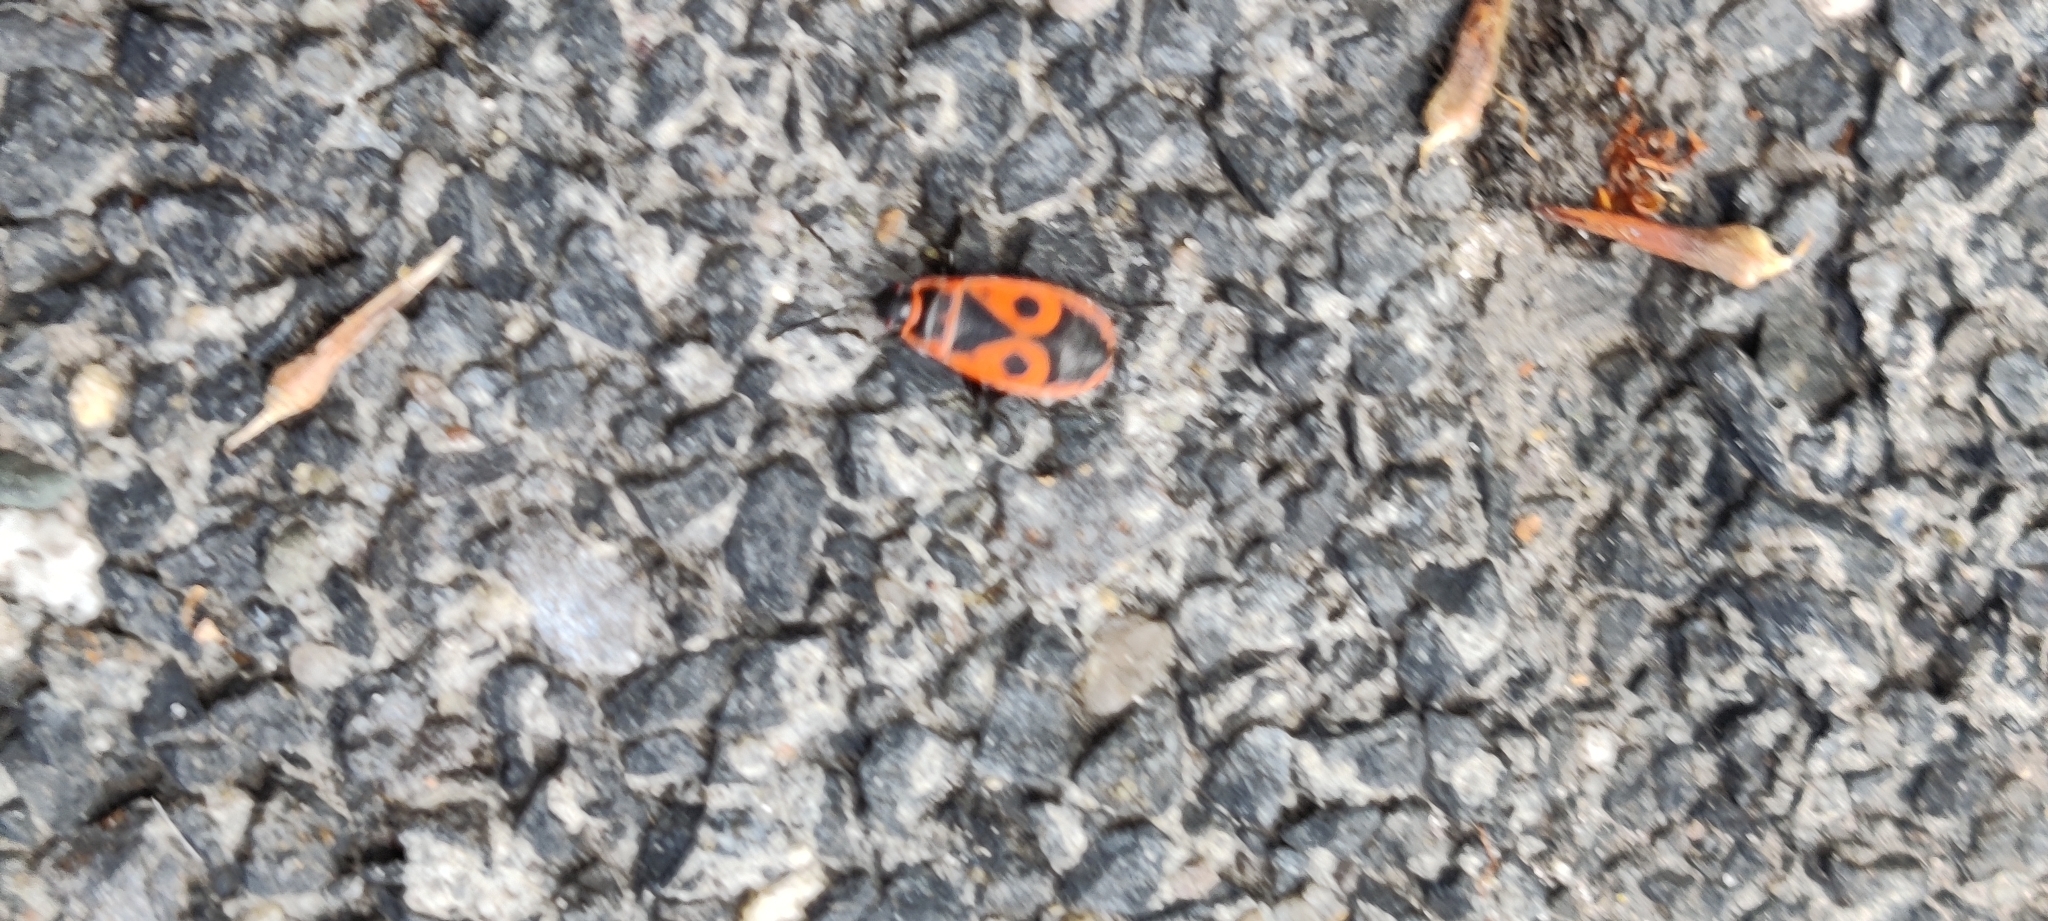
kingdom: Animalia
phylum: Arthropoda
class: Insecta
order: Hemiptera
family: Pyrrhocoridae
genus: Pyrrhocoris
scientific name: Pyrrhocoris apterus
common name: Firebug
